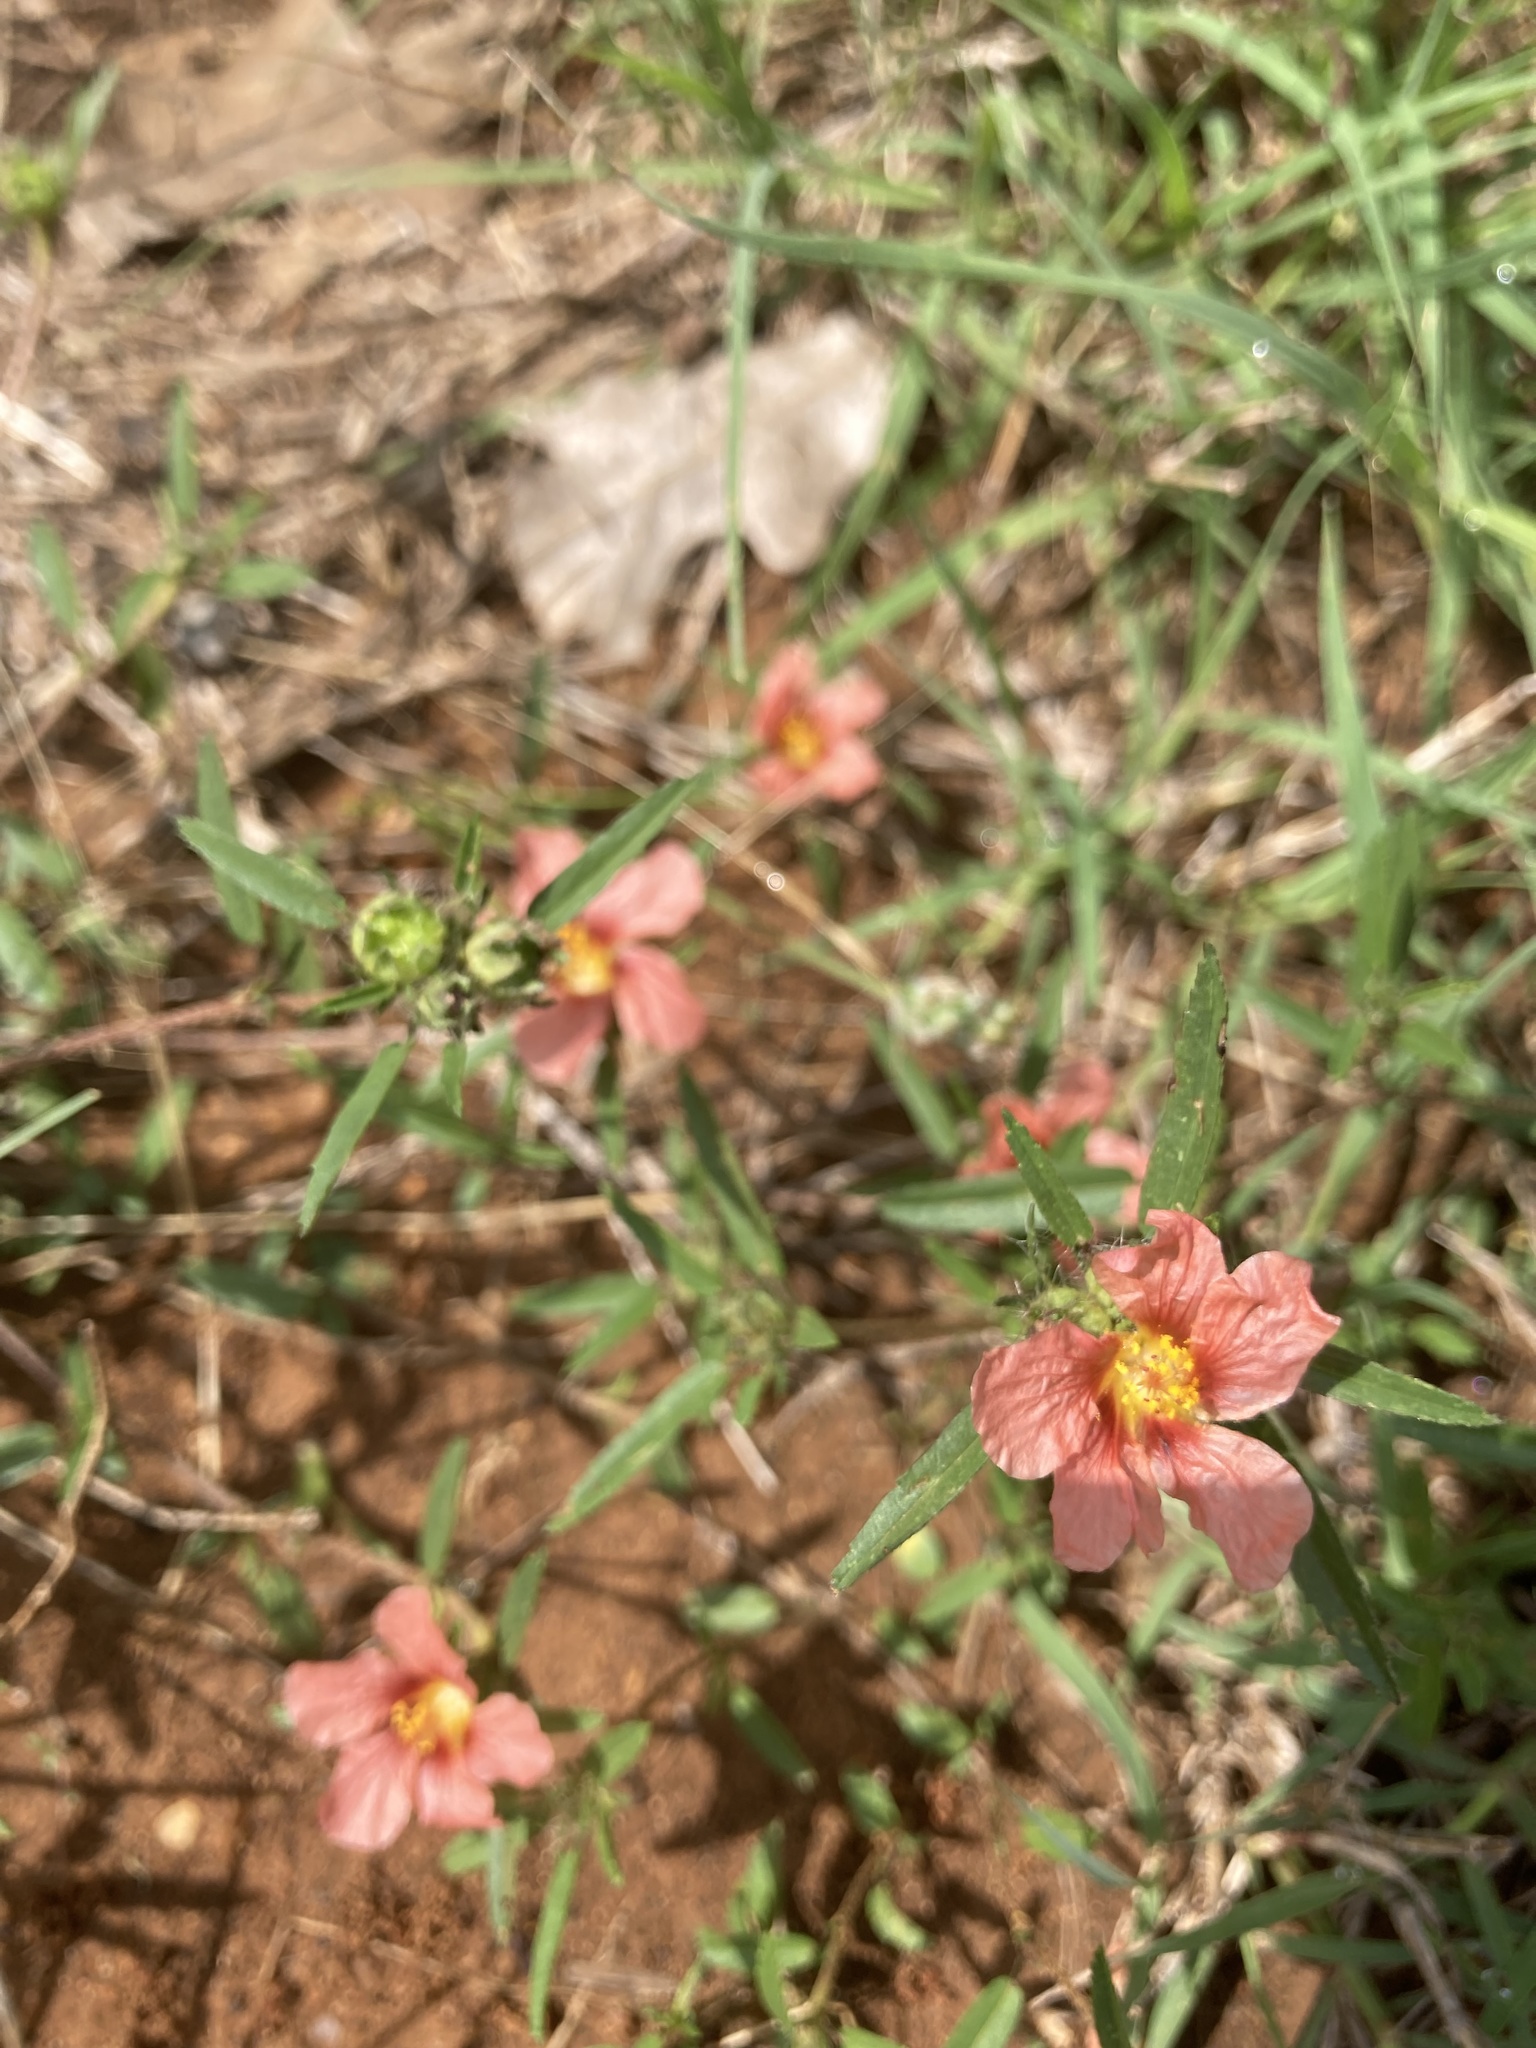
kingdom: Plantae
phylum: Tracheophyta
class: Magnoliopsida
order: Malvales
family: Malvaceae
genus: Sida
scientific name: Sida ciliaris
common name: Bracted fanpetals
